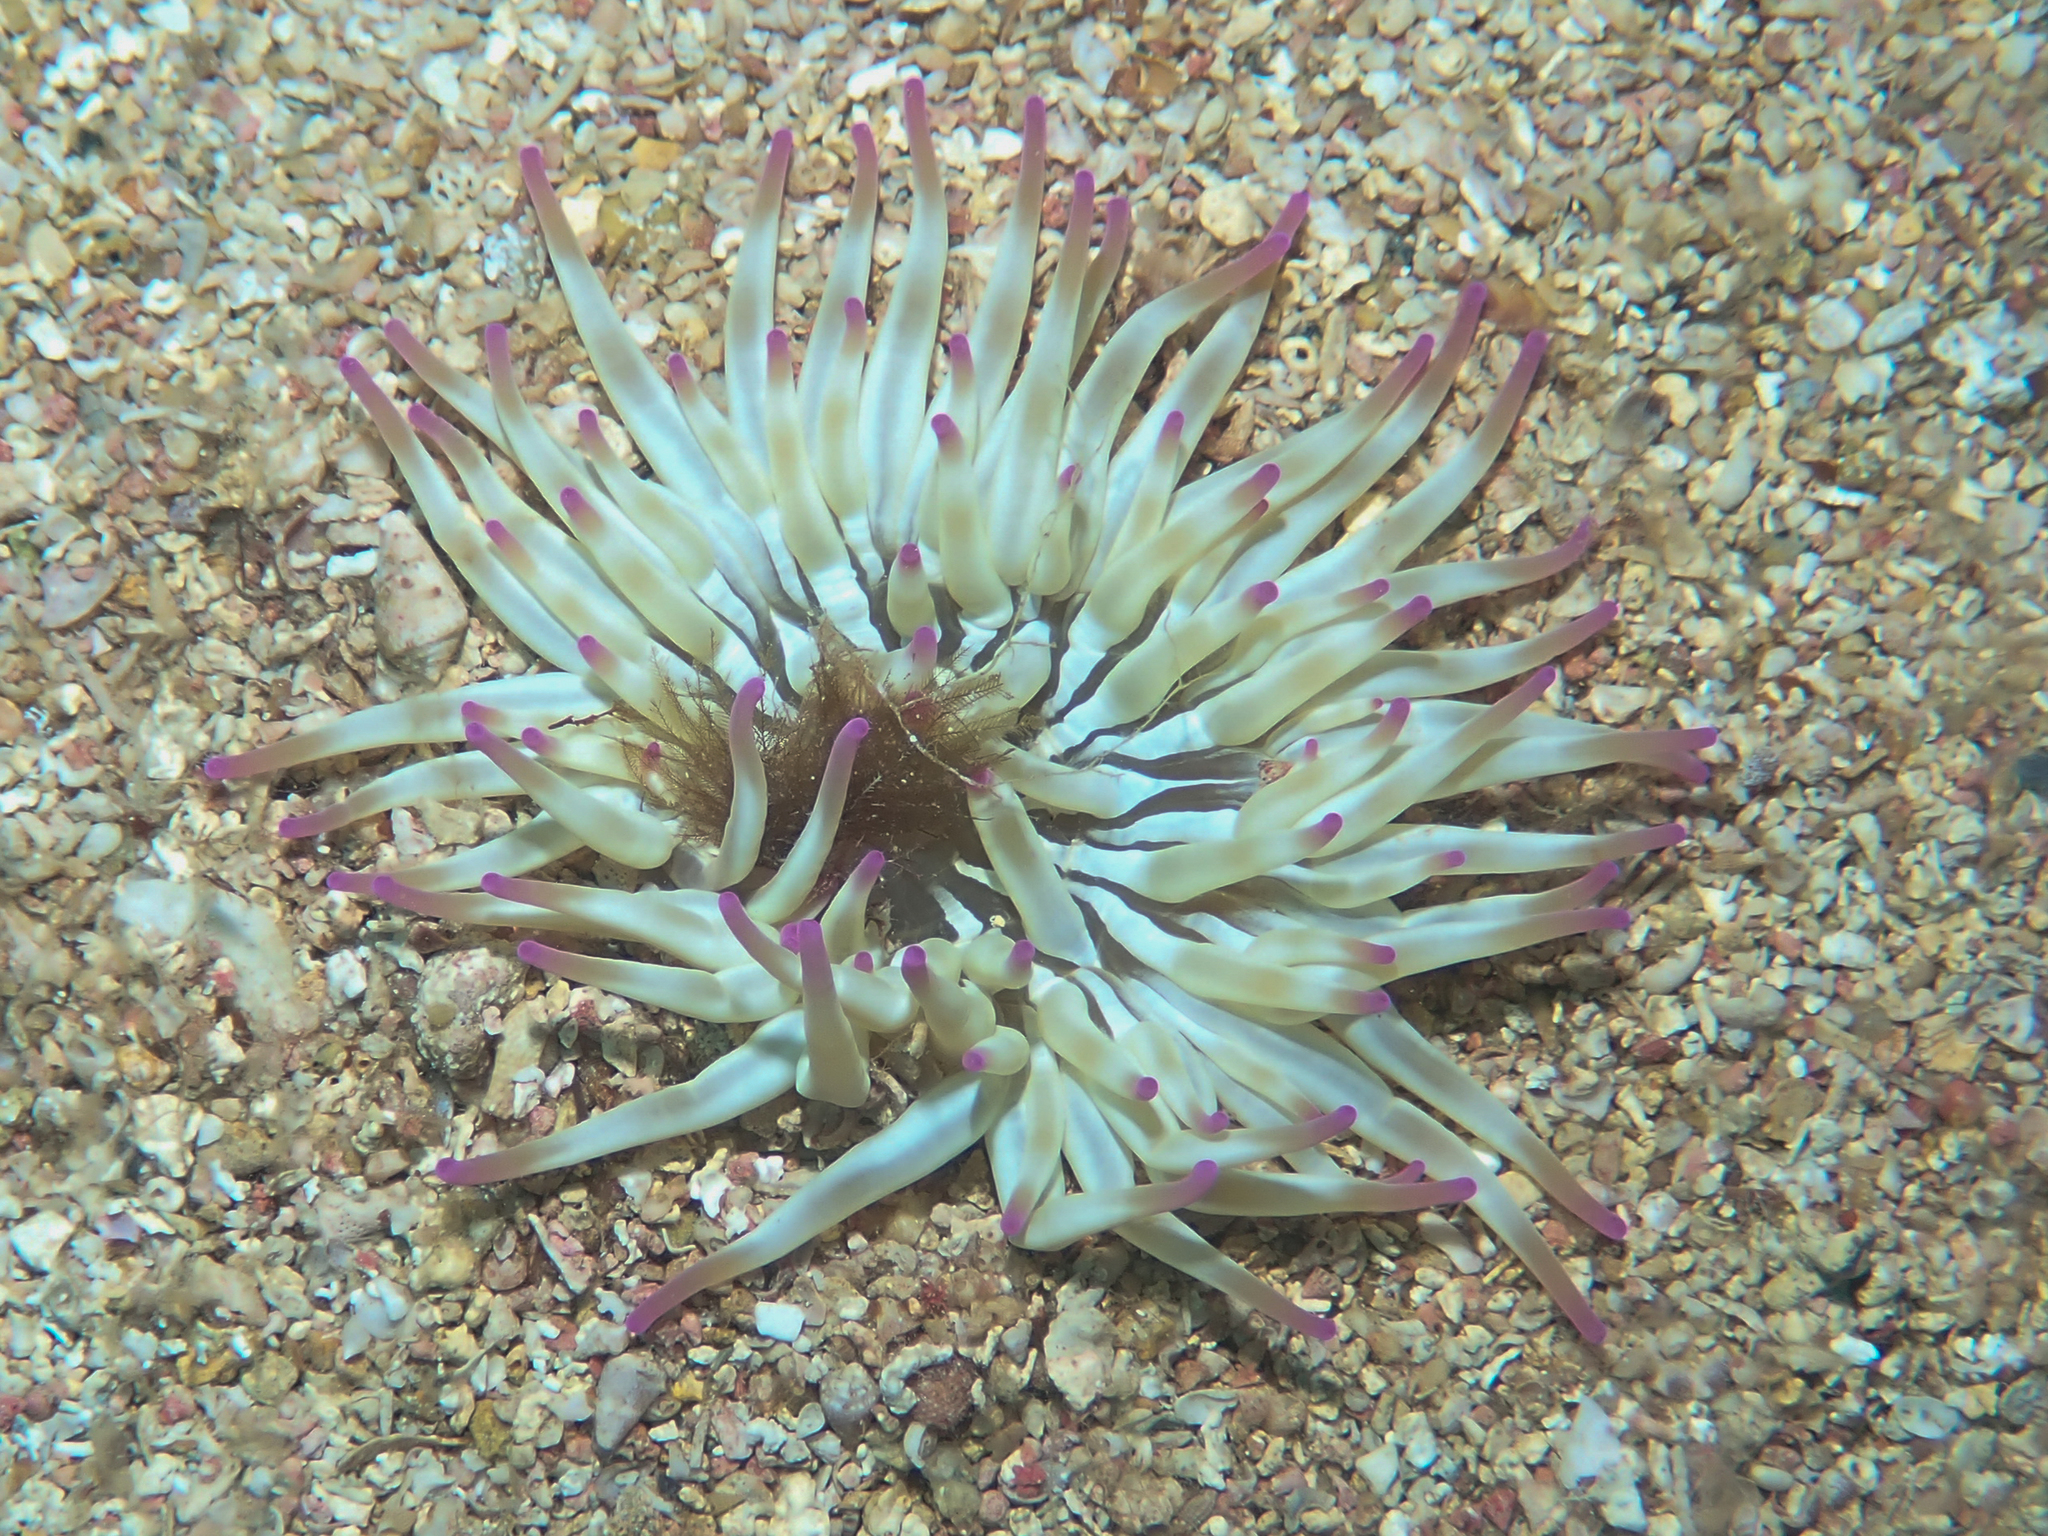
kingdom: Animalia
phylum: Cnidaria
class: Anthozoa
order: Actiniaria
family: Actiniidae
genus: Condylactis
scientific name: Condylactis aurantiaca
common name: Golden anemone
